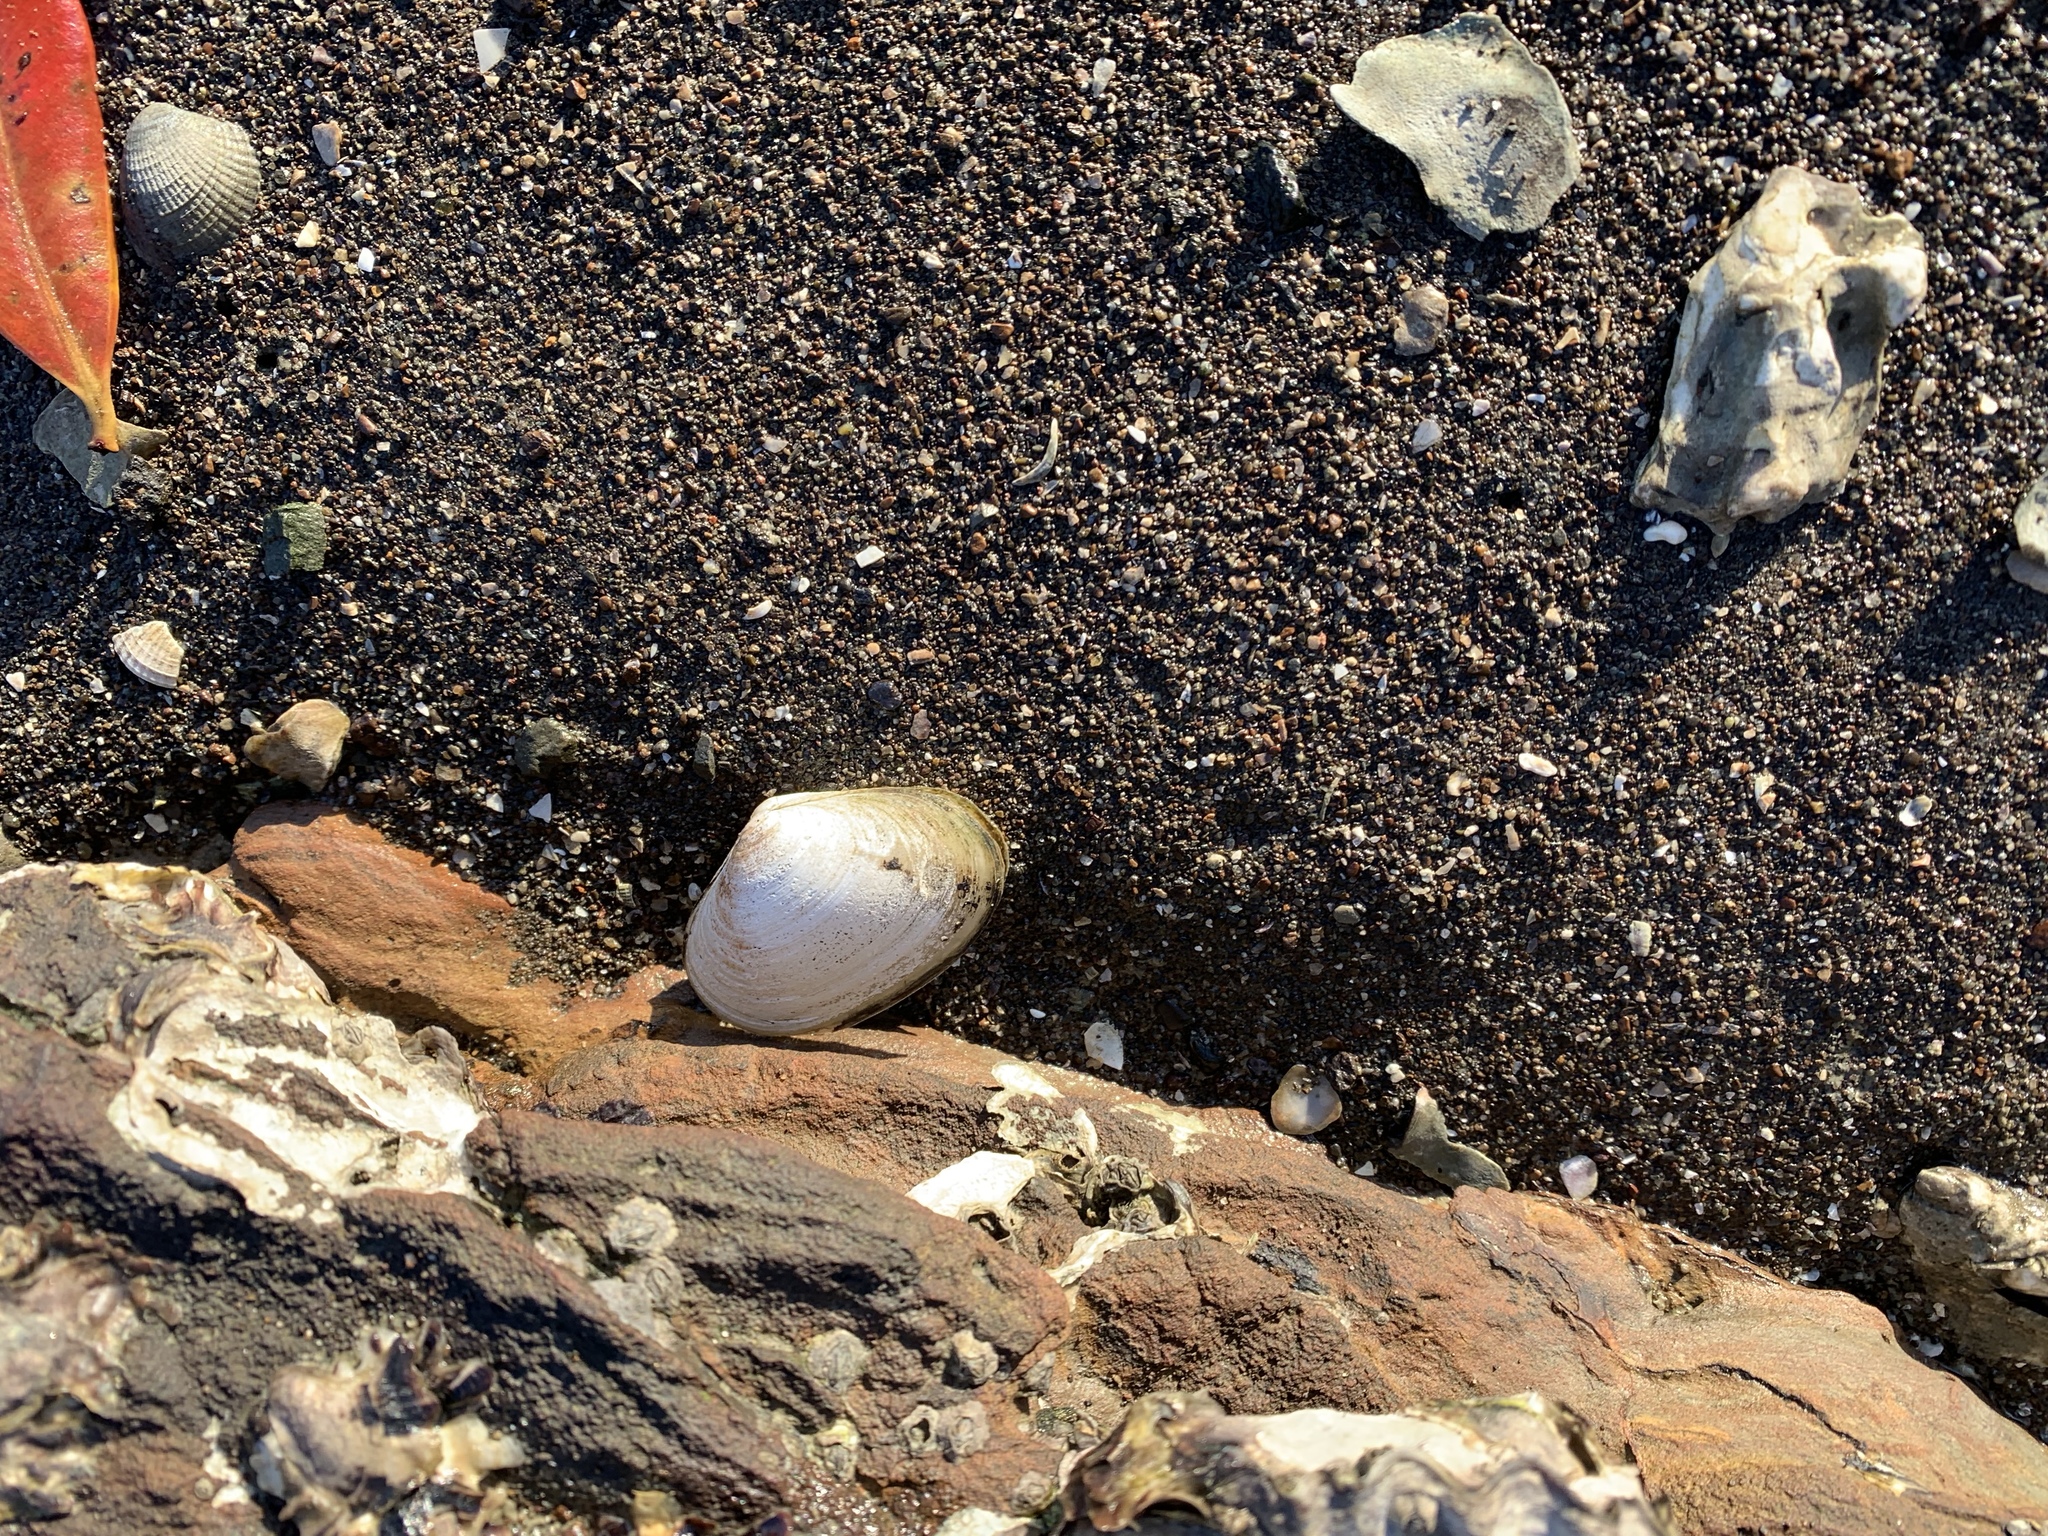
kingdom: Animalia
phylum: Mollusca
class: Bivalvia
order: Venerida
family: Mesodesmatidae
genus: Paphies
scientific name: Paphies australis
